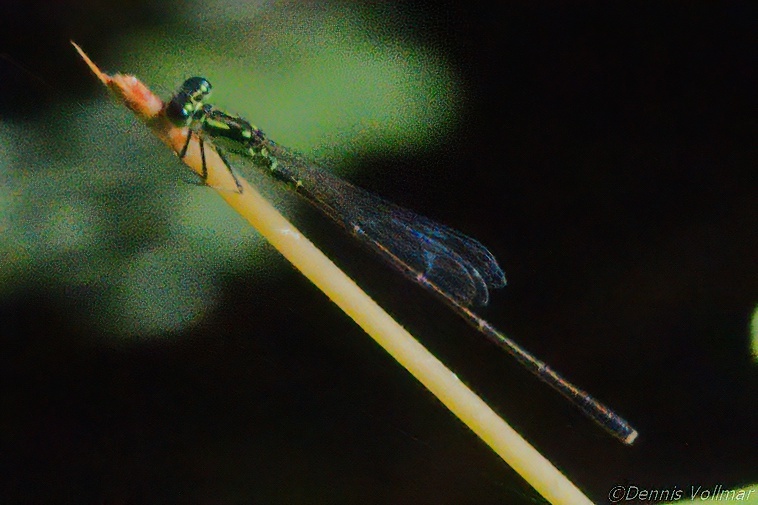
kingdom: Animalia
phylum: Arthropoda
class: Insecta
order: Odonata
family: Coenagrionidae
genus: Ischnura
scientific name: Ischnura posita
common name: Fragile forktail
